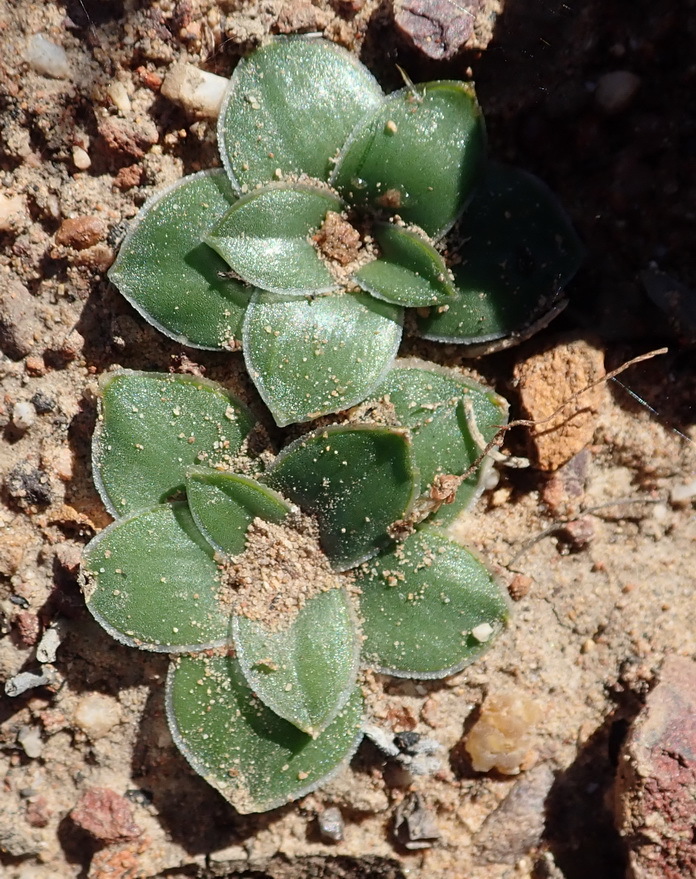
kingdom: Plantae
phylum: Tracheophyta
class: Liliopsida
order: Asparagales
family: Asparagaceae
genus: Drimia
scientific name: Drimia ciliata
